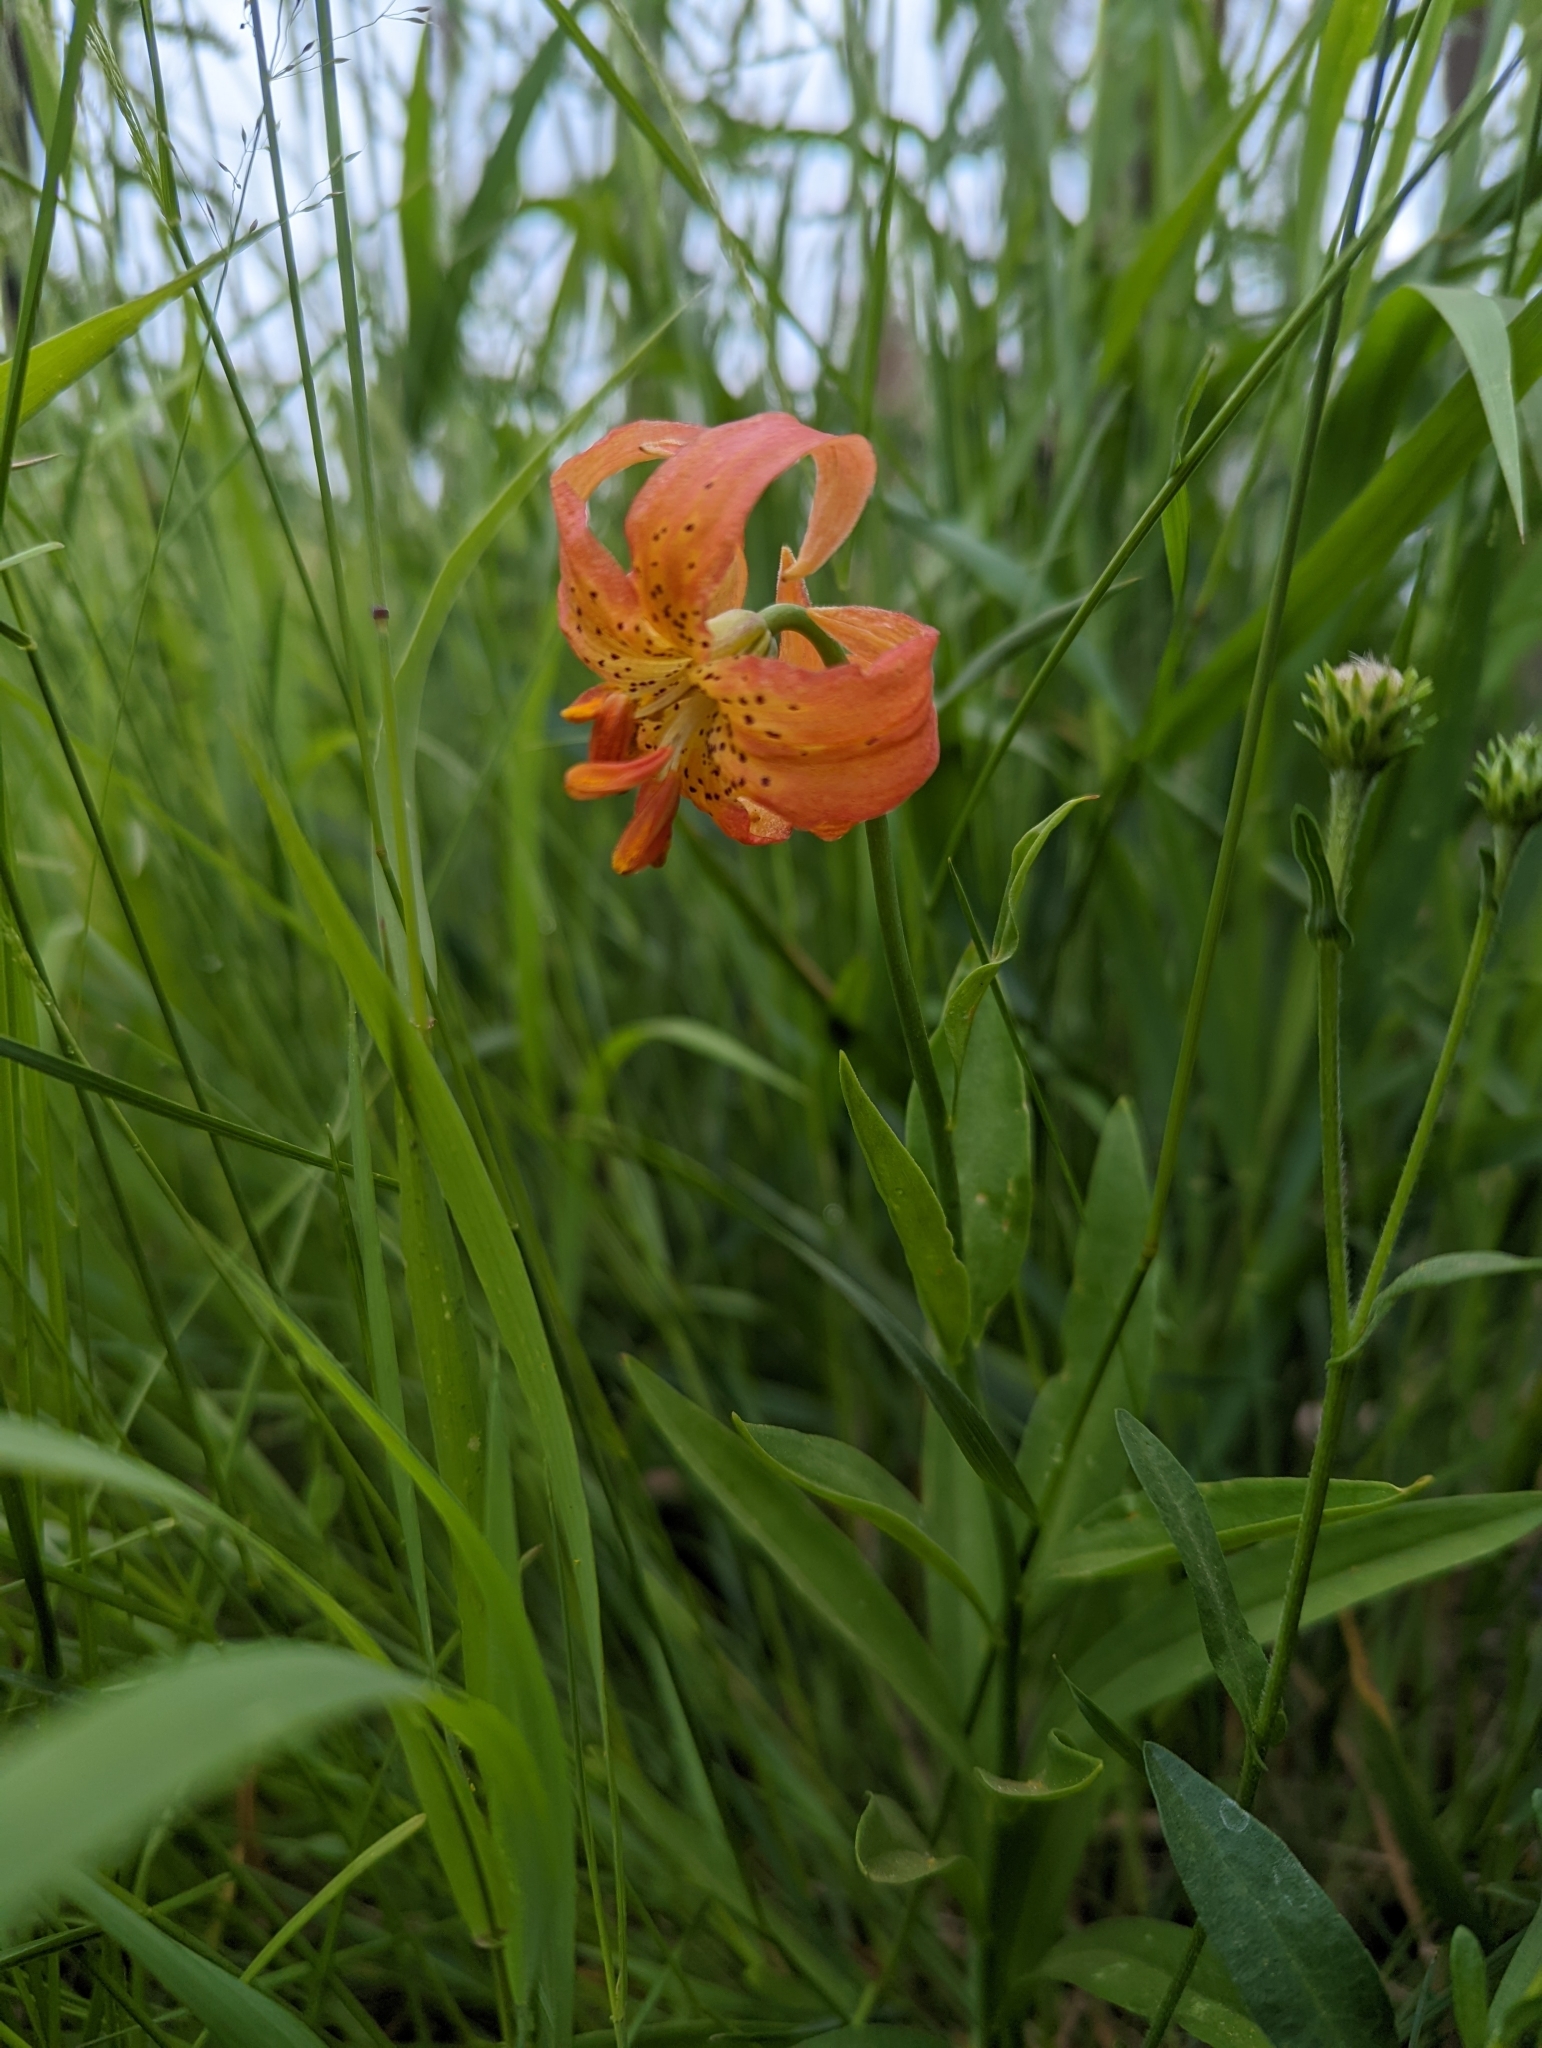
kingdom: Plantae
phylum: Tracheophyta
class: Liliopsida
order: Liliales
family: Liliaceae
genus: Lilium
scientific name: Lilium pardalinum
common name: Panther lily
